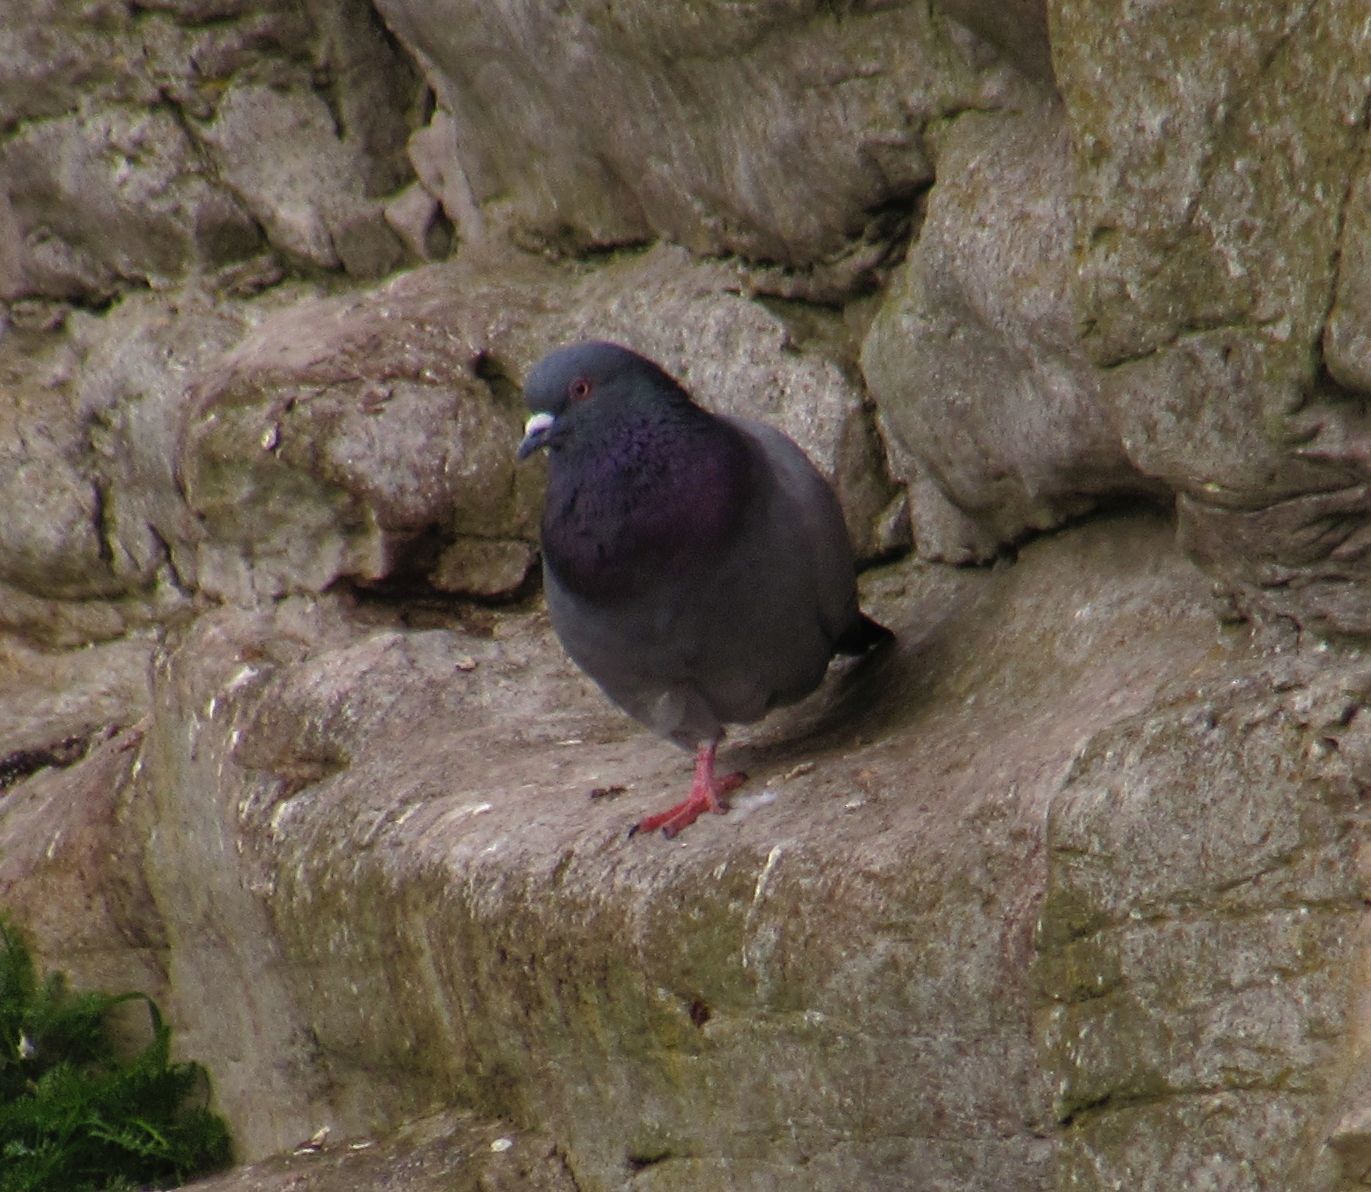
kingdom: Animalia
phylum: Chordata
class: Aves
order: Columbiformes
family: Columbidae
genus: Columba
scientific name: Columba livia
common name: Rock pigeon
